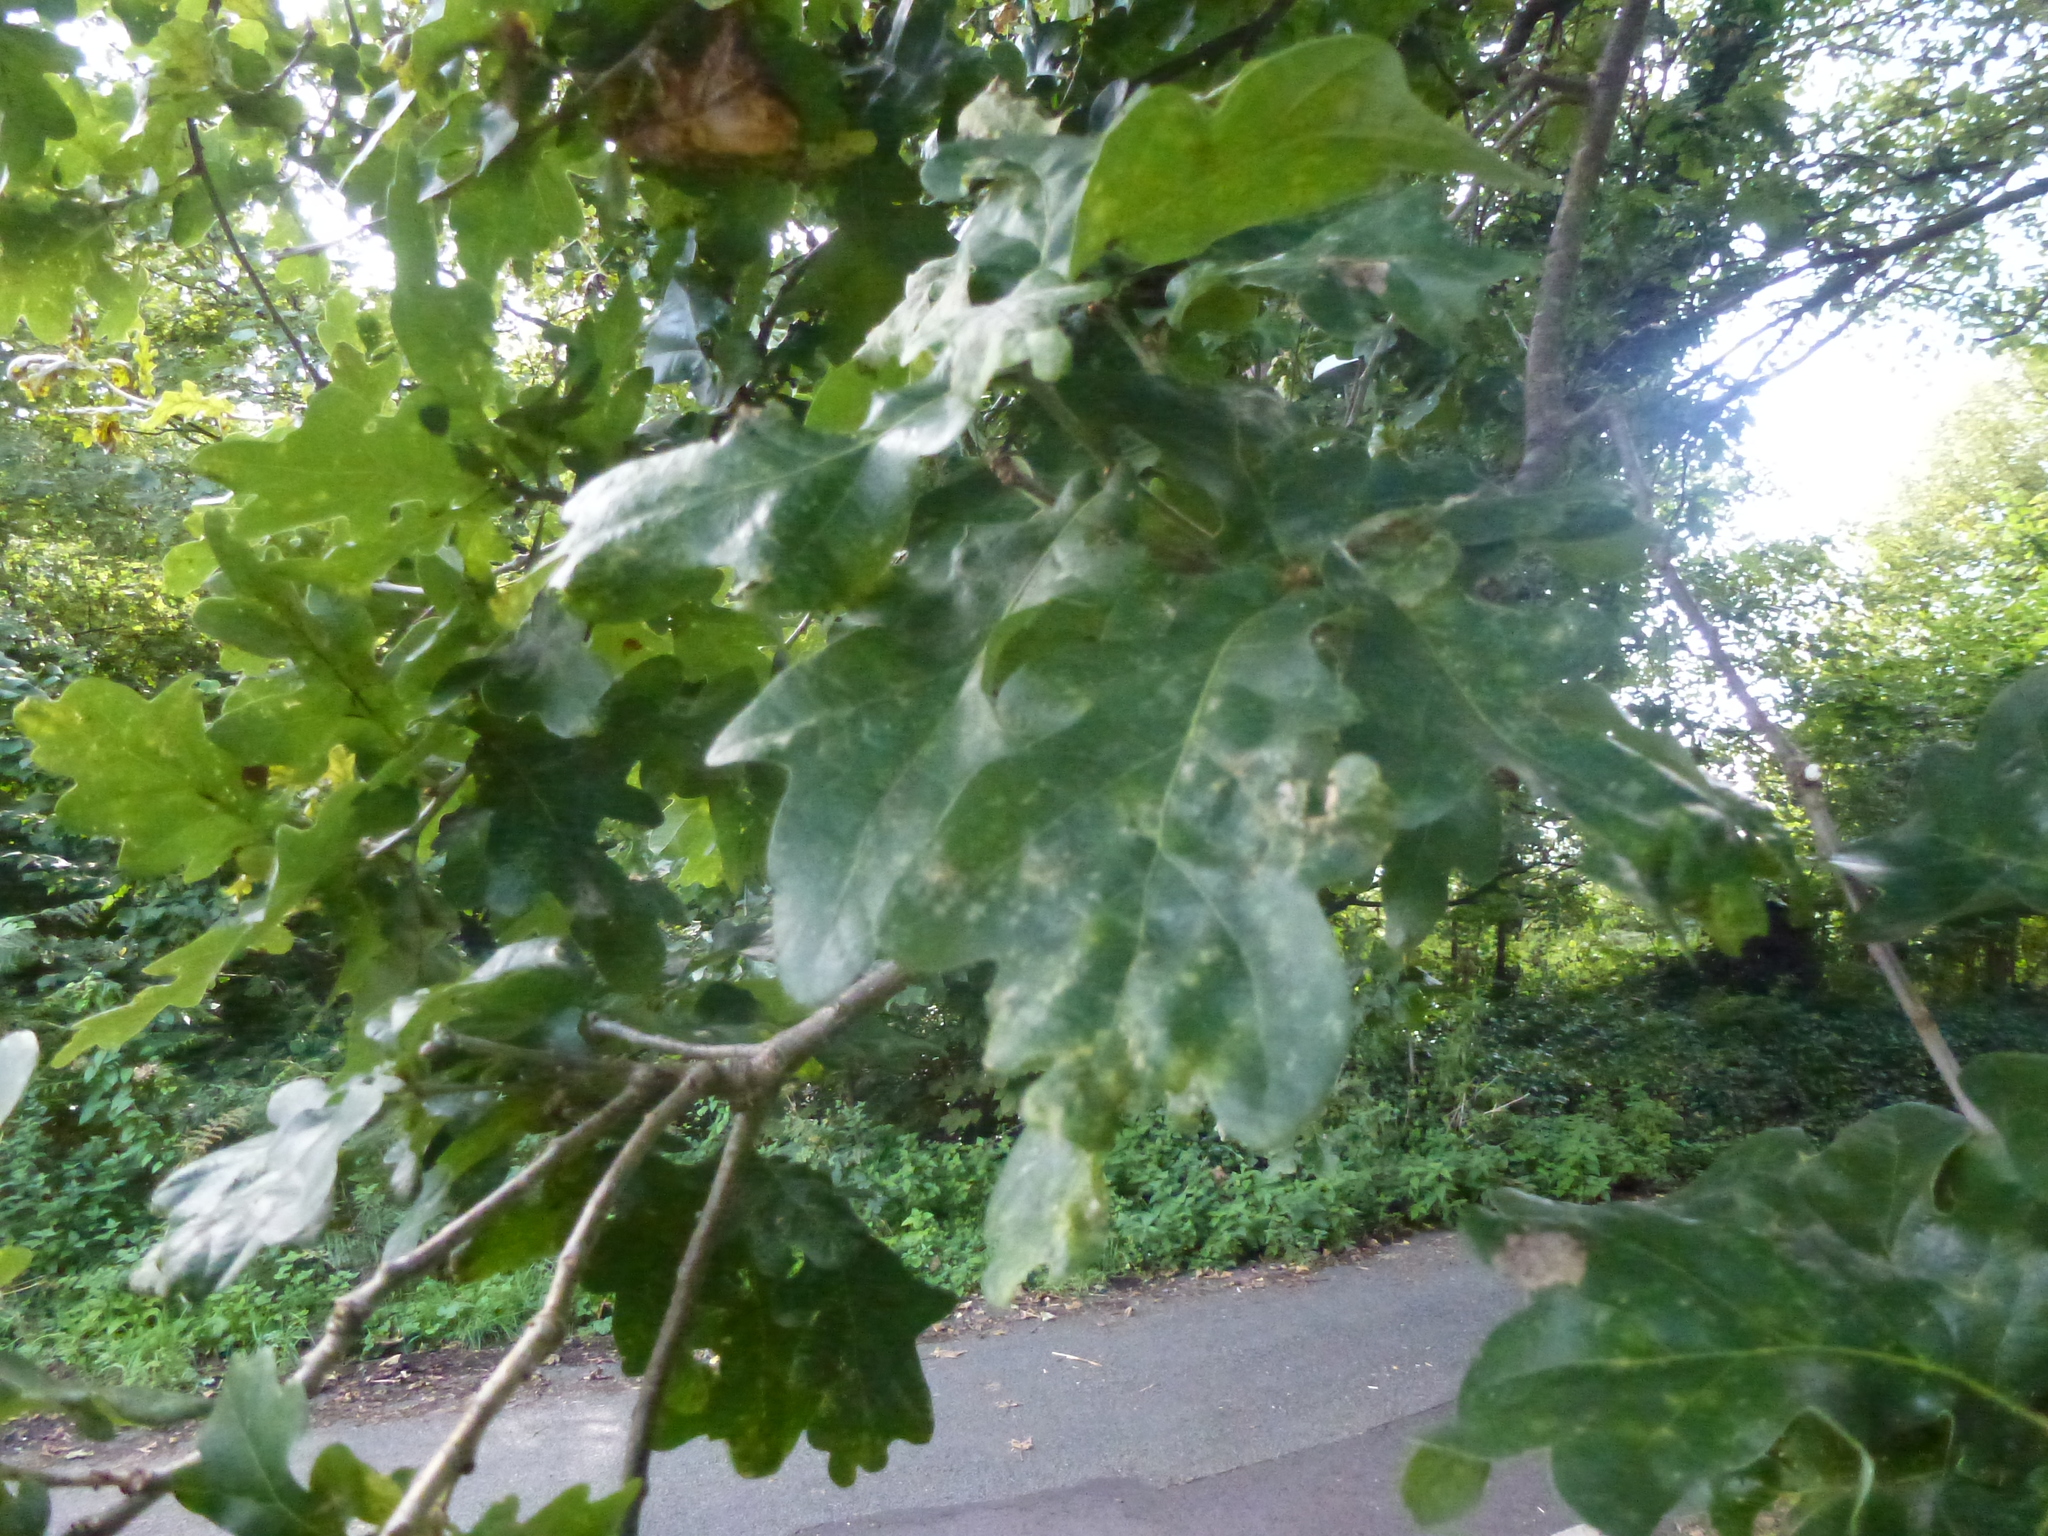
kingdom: Fungi
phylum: Ascomycota
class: Leotiomycetes
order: Helotiales
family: Erysiphaceae
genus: Erysiphe
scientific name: Erysiphe alphitoides
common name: Oak mildew
